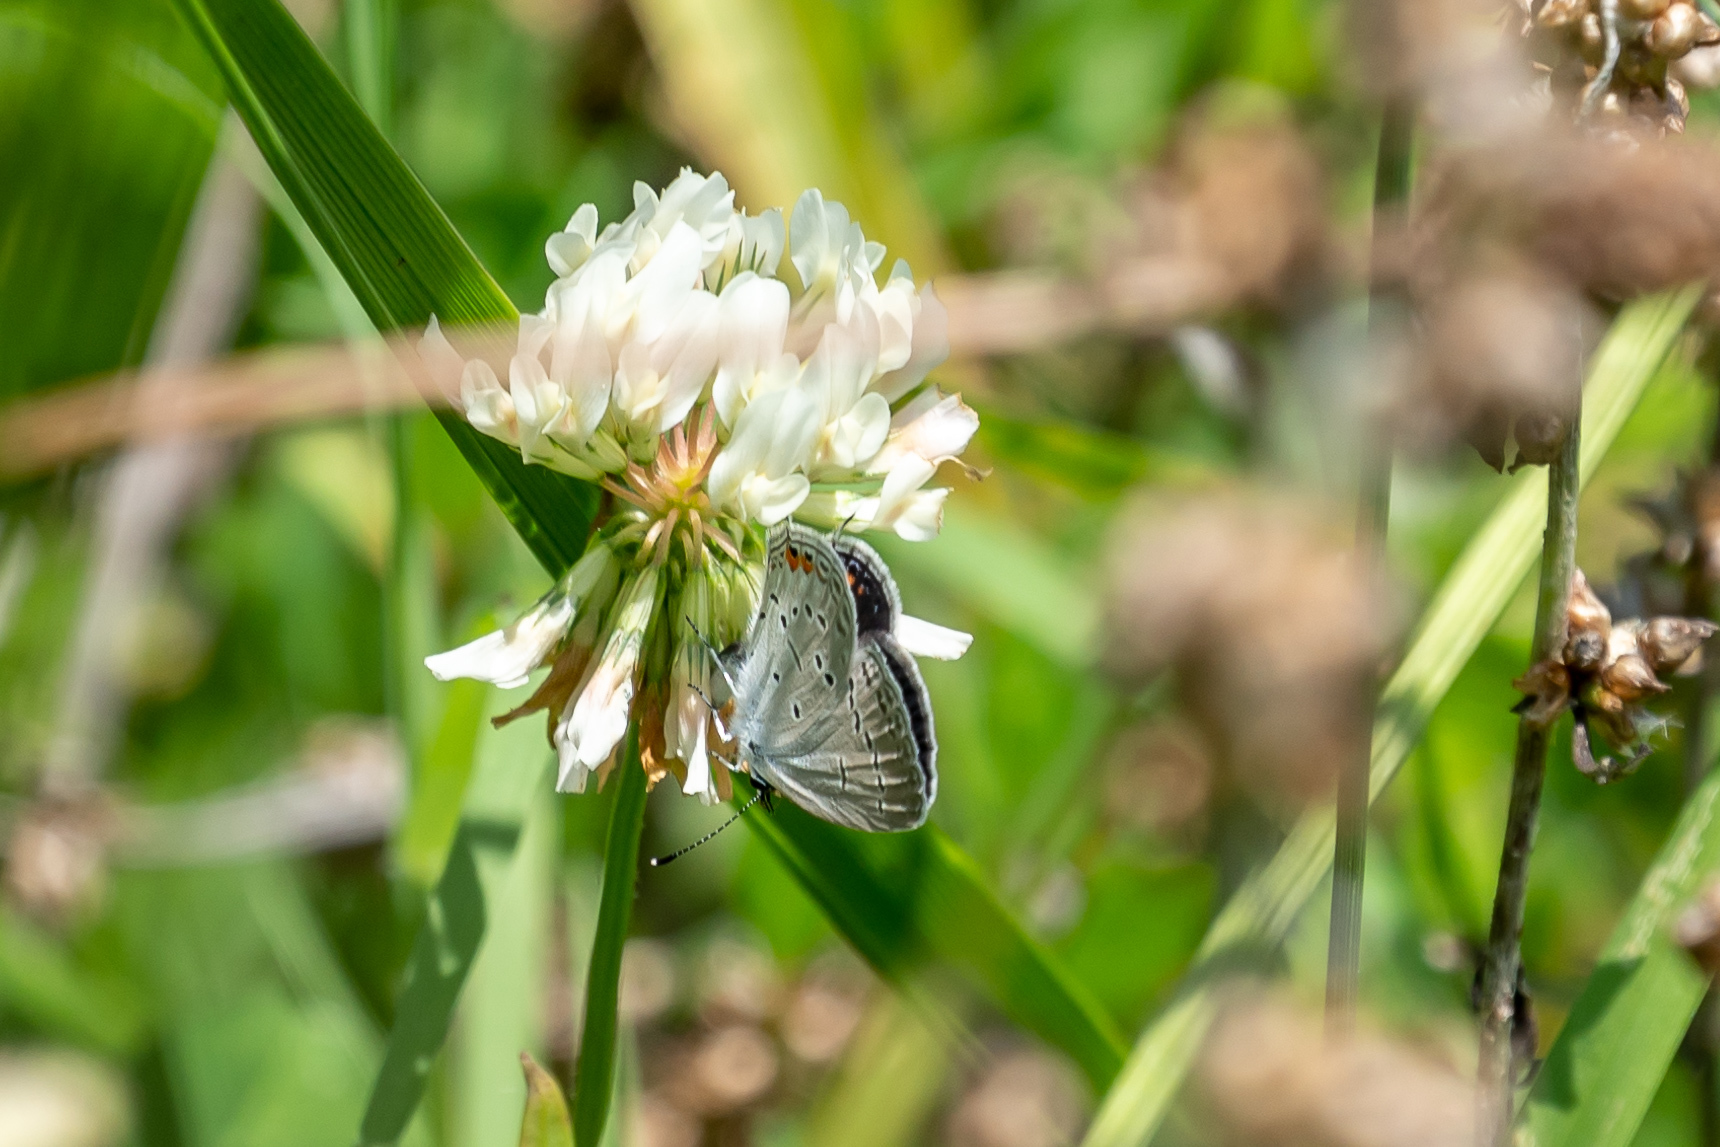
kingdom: Animalia
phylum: Arthropoda
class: Insecta
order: Lepidoptera
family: Lycaenidae
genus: Elkalyce
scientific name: Elkalyce comyntas
